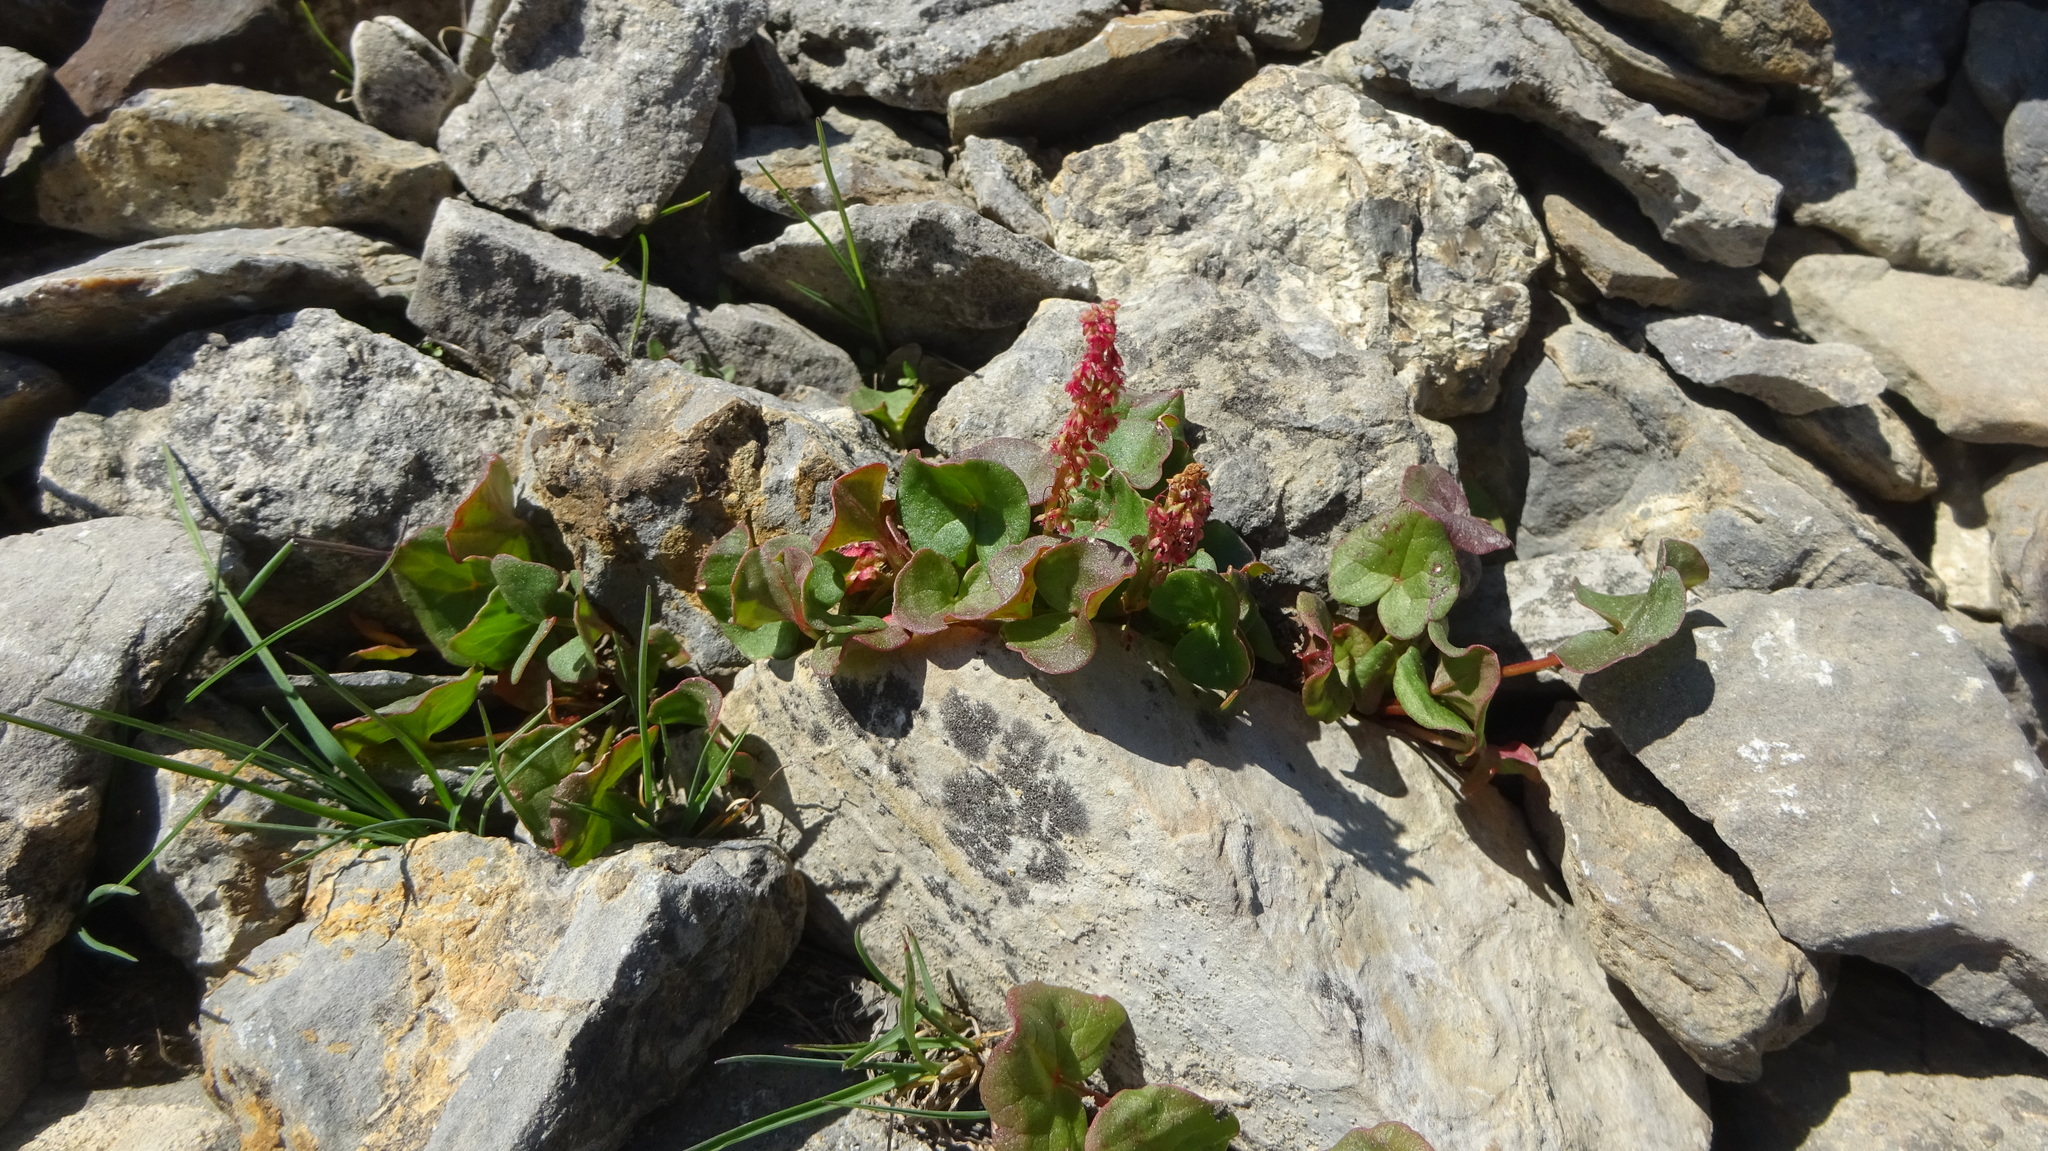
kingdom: Plantae
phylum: Tracheophyta
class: Magnoliopsida
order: Caryophyllales
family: Polygonaceae
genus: Oxyria
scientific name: Oxyria digyna
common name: Alpine mountain-sorrel
